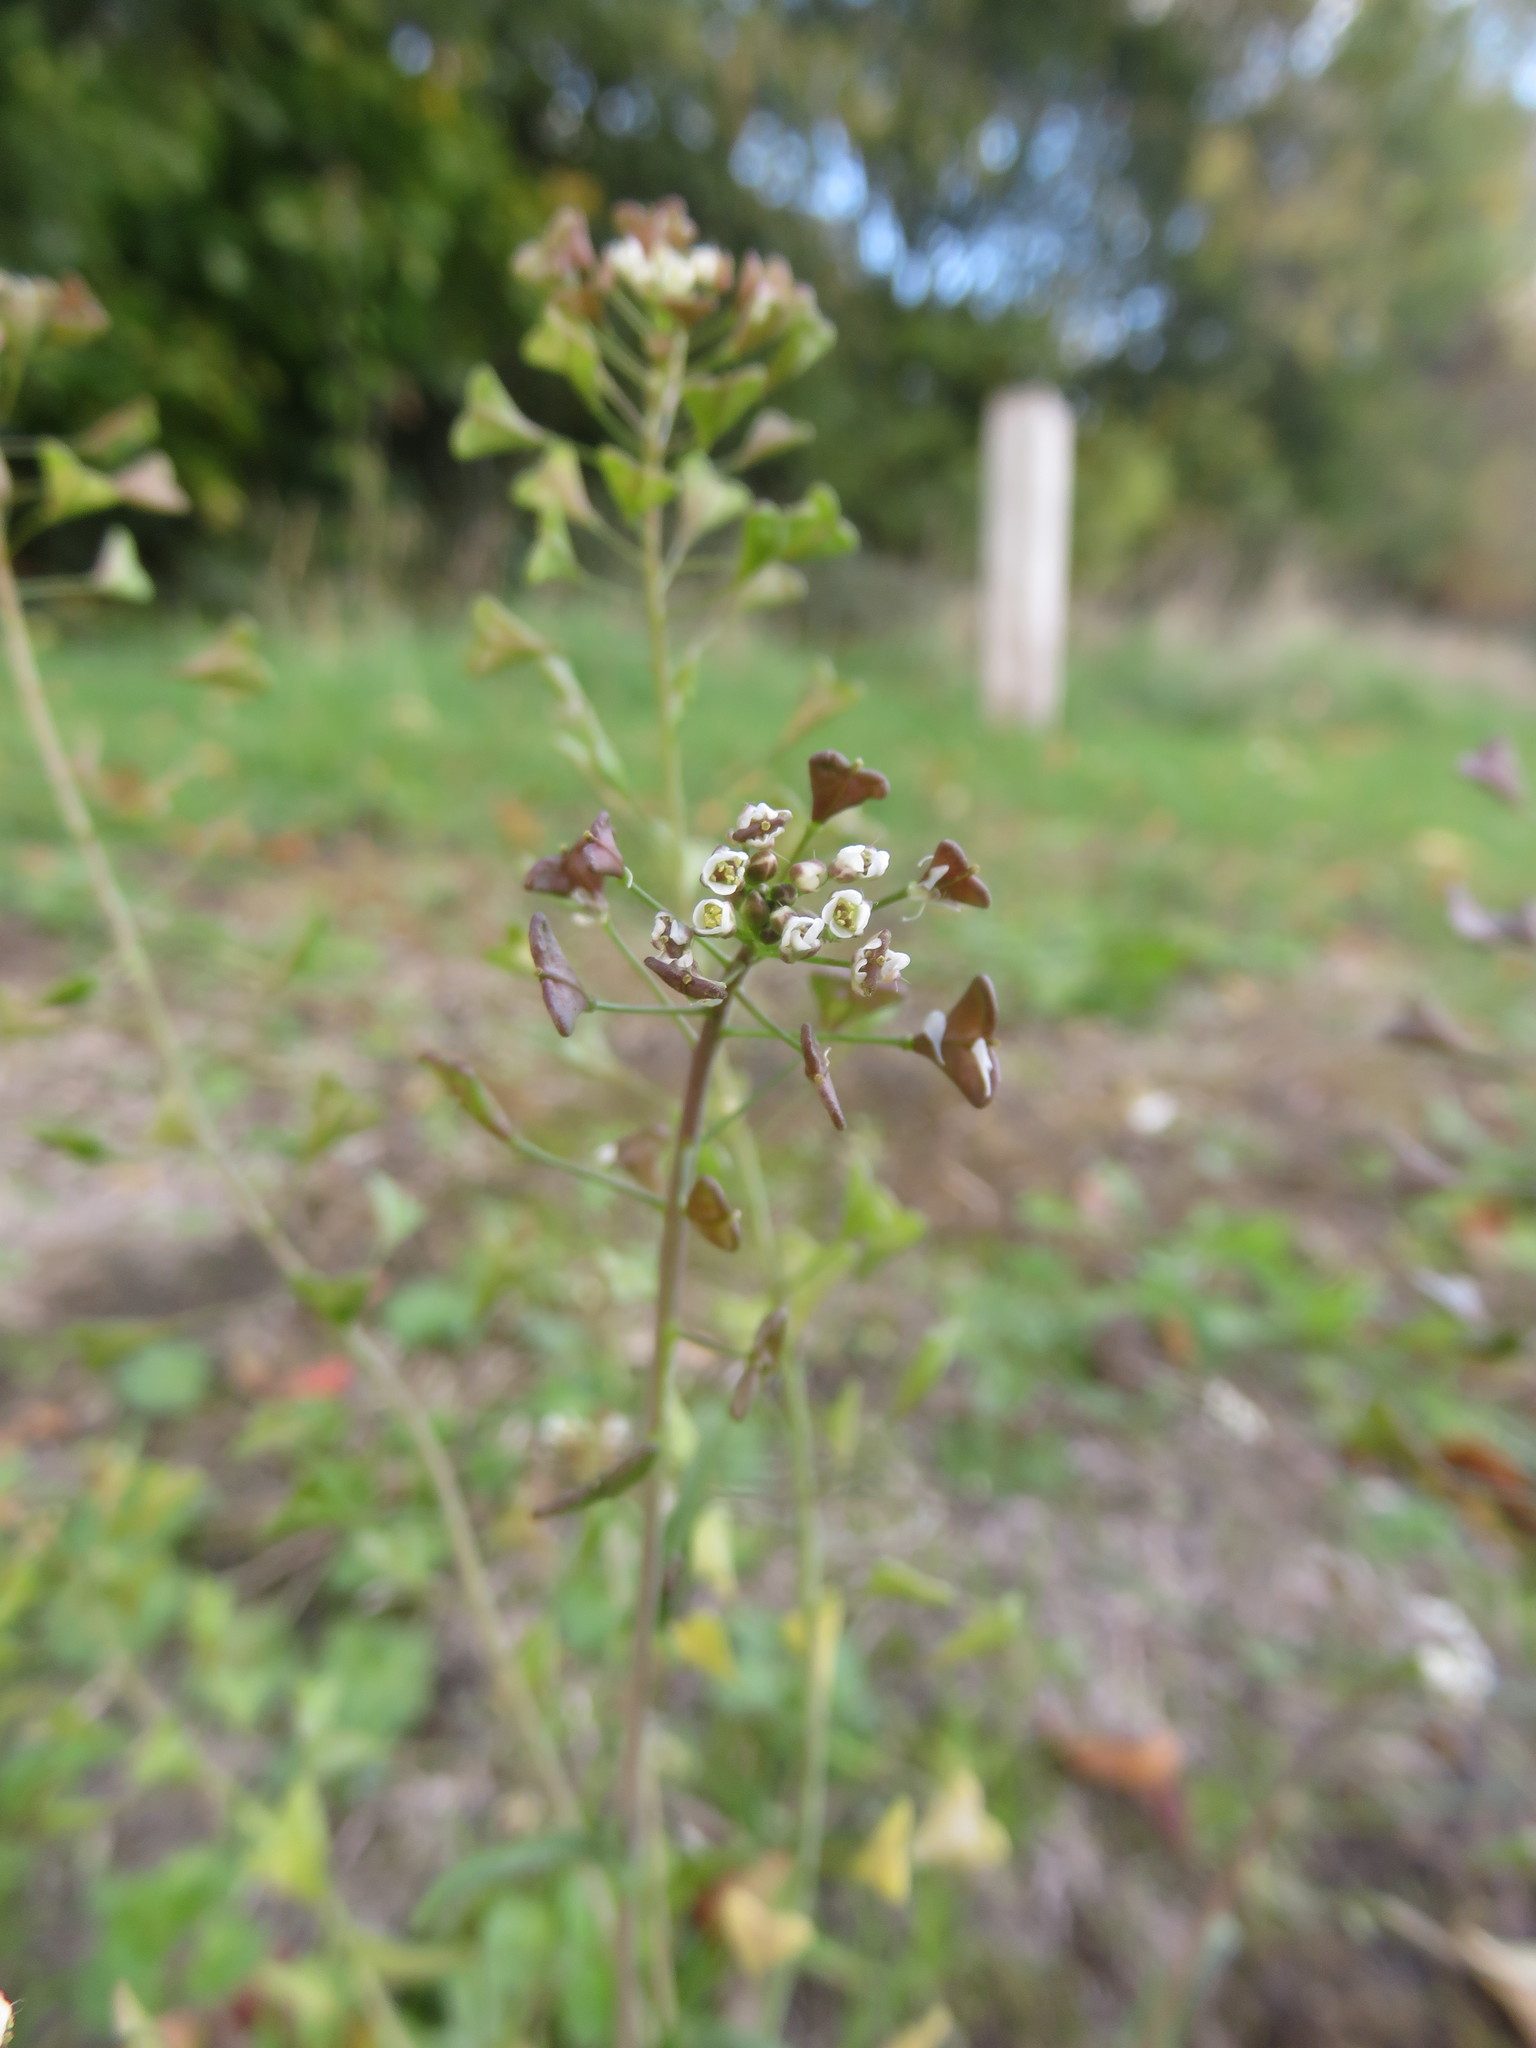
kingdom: Plantae
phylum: Tracheophyta
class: Magnoliopsida
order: Brassicales
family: Brassicaceae
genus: Capsella
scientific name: Capsella bursa-pastoris
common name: Shepherd's purse
